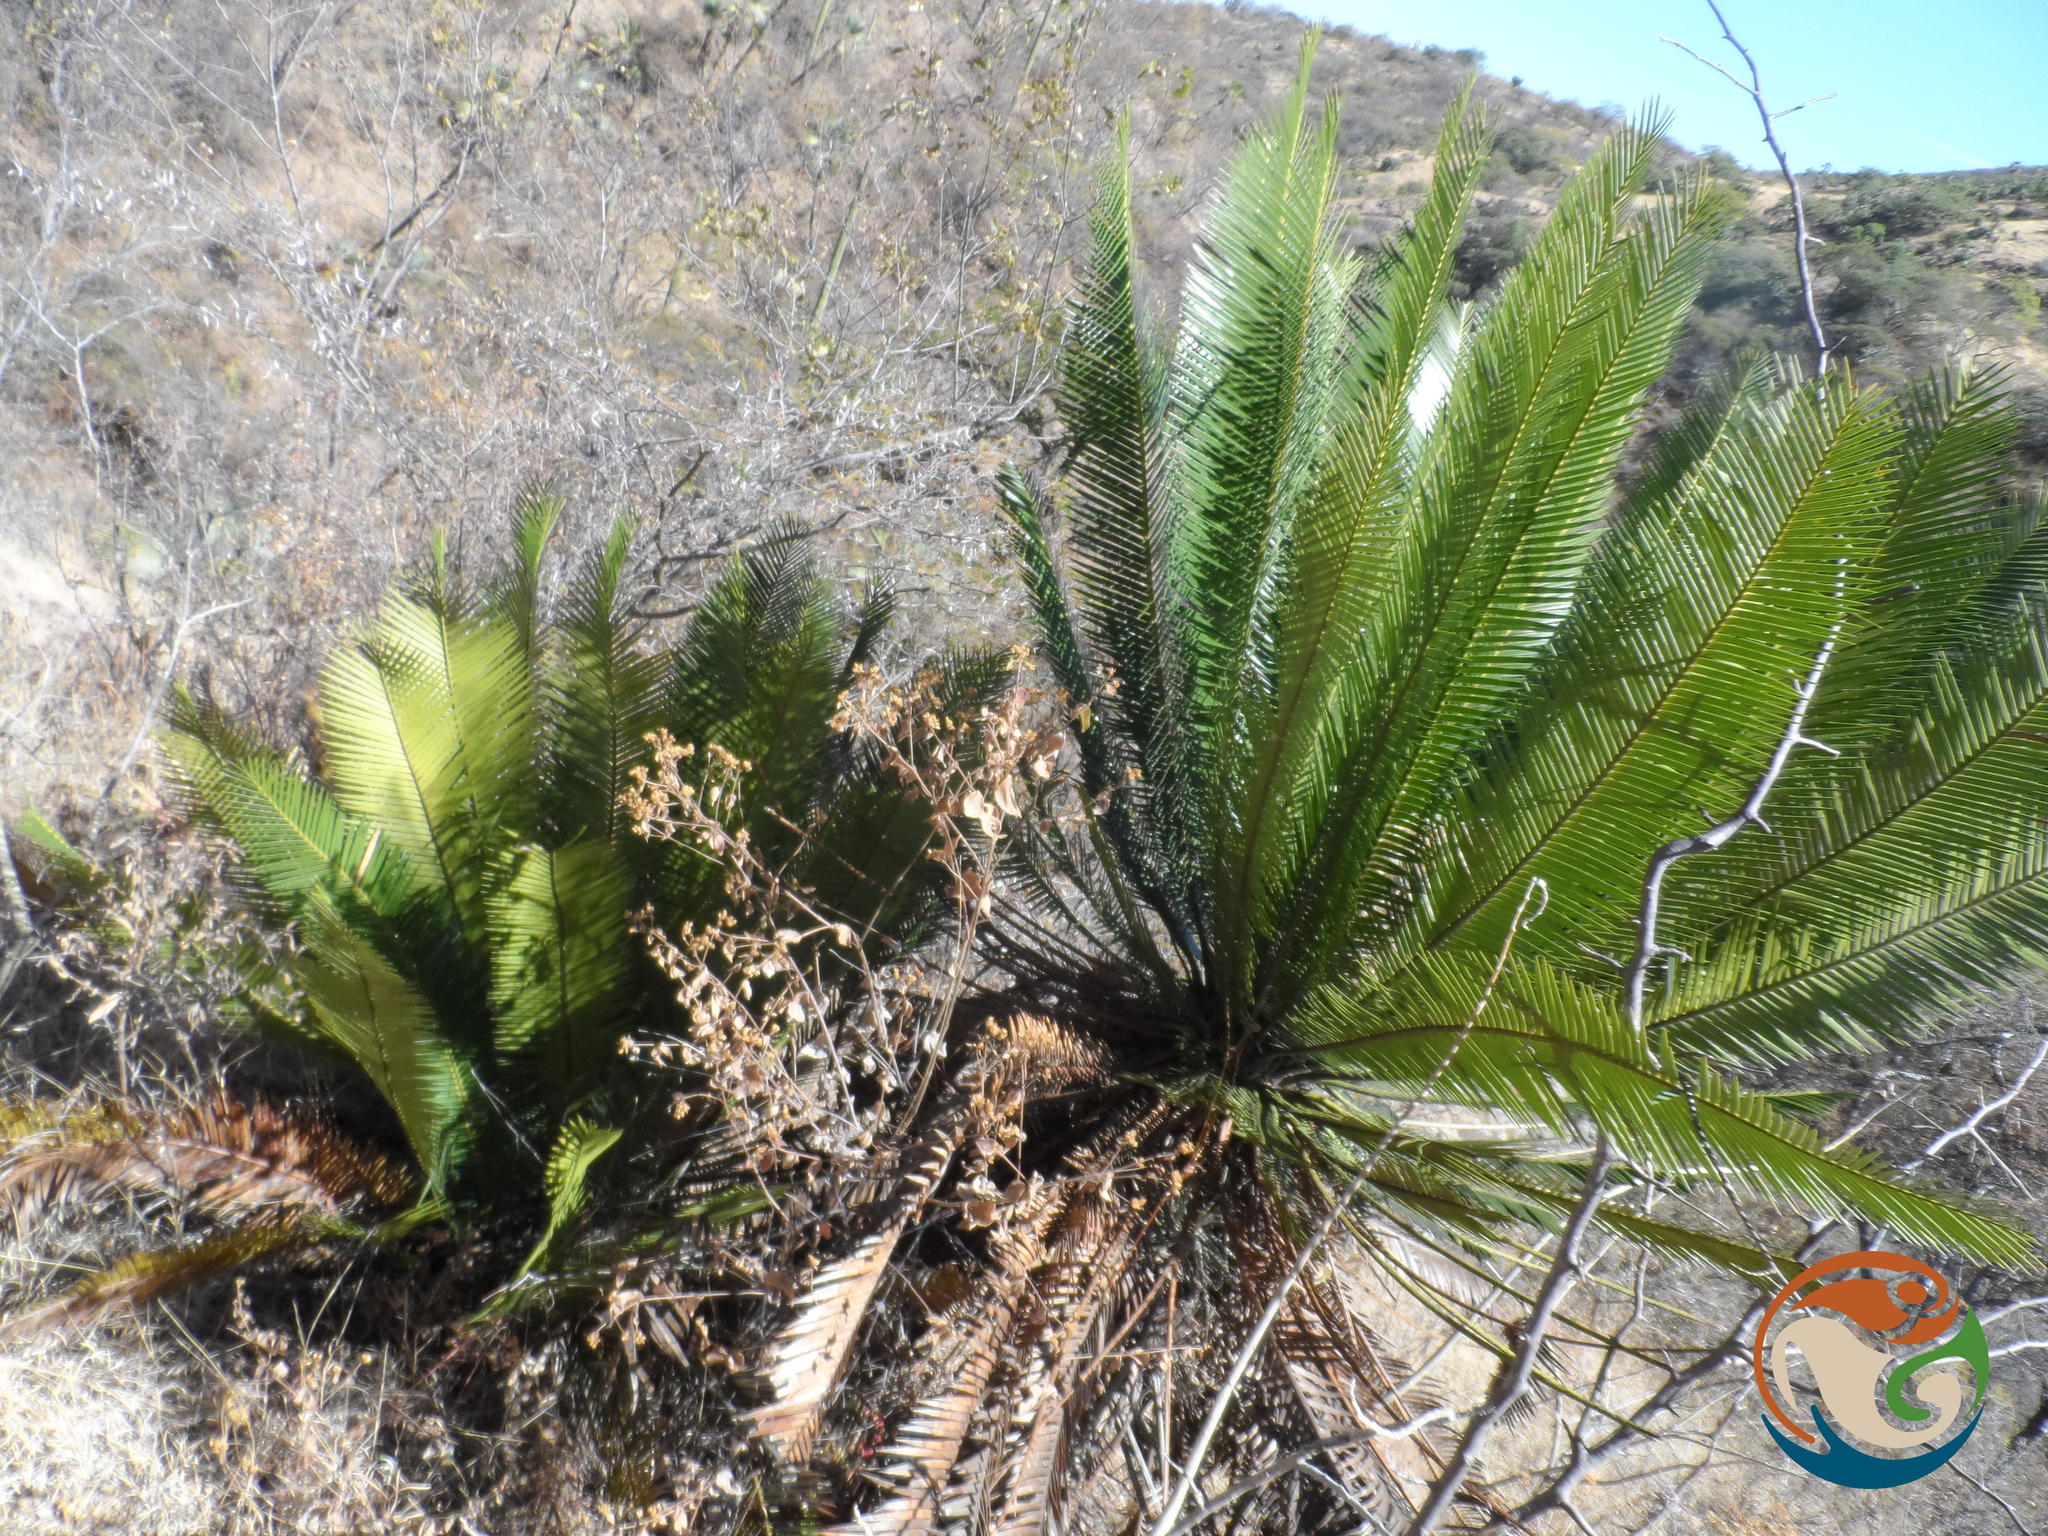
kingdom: Plantae
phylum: Tracheophyta
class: Cycadopsida
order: Cycadales
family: Zamiaceae
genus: Dioon
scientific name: Dioon planifolium
